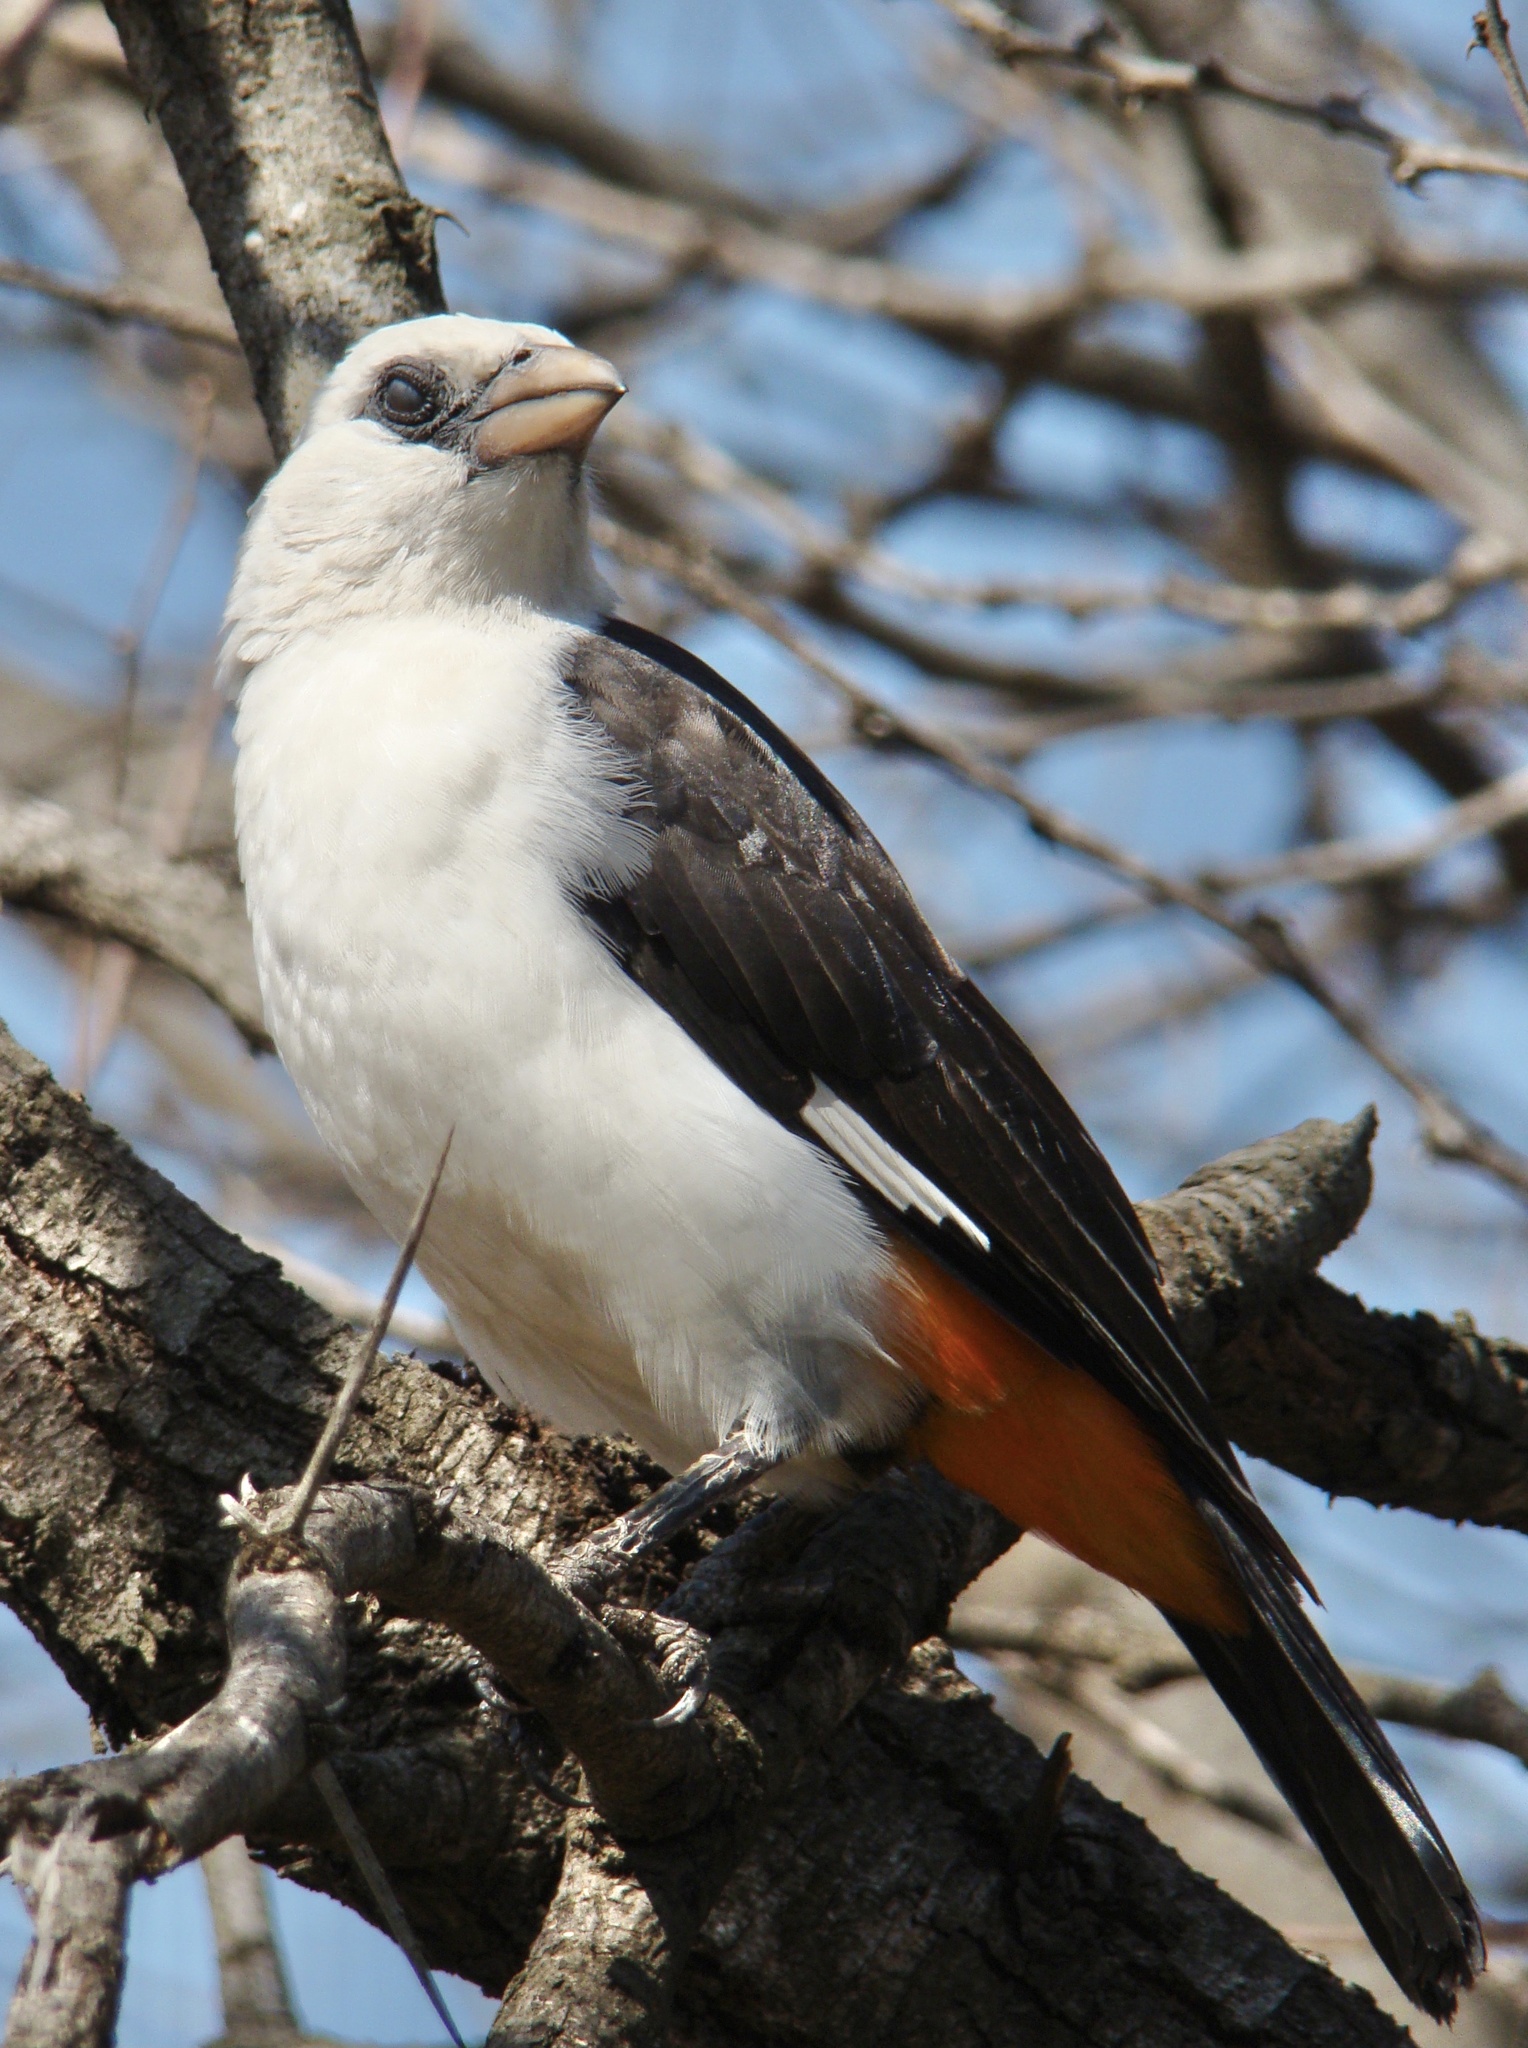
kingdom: Animalia
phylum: Chordata
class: Aves
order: Passeriformes
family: Ploceidae
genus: Dinemellia
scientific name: Dinemellia dinemelli
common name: White-headed buffalo weaver
